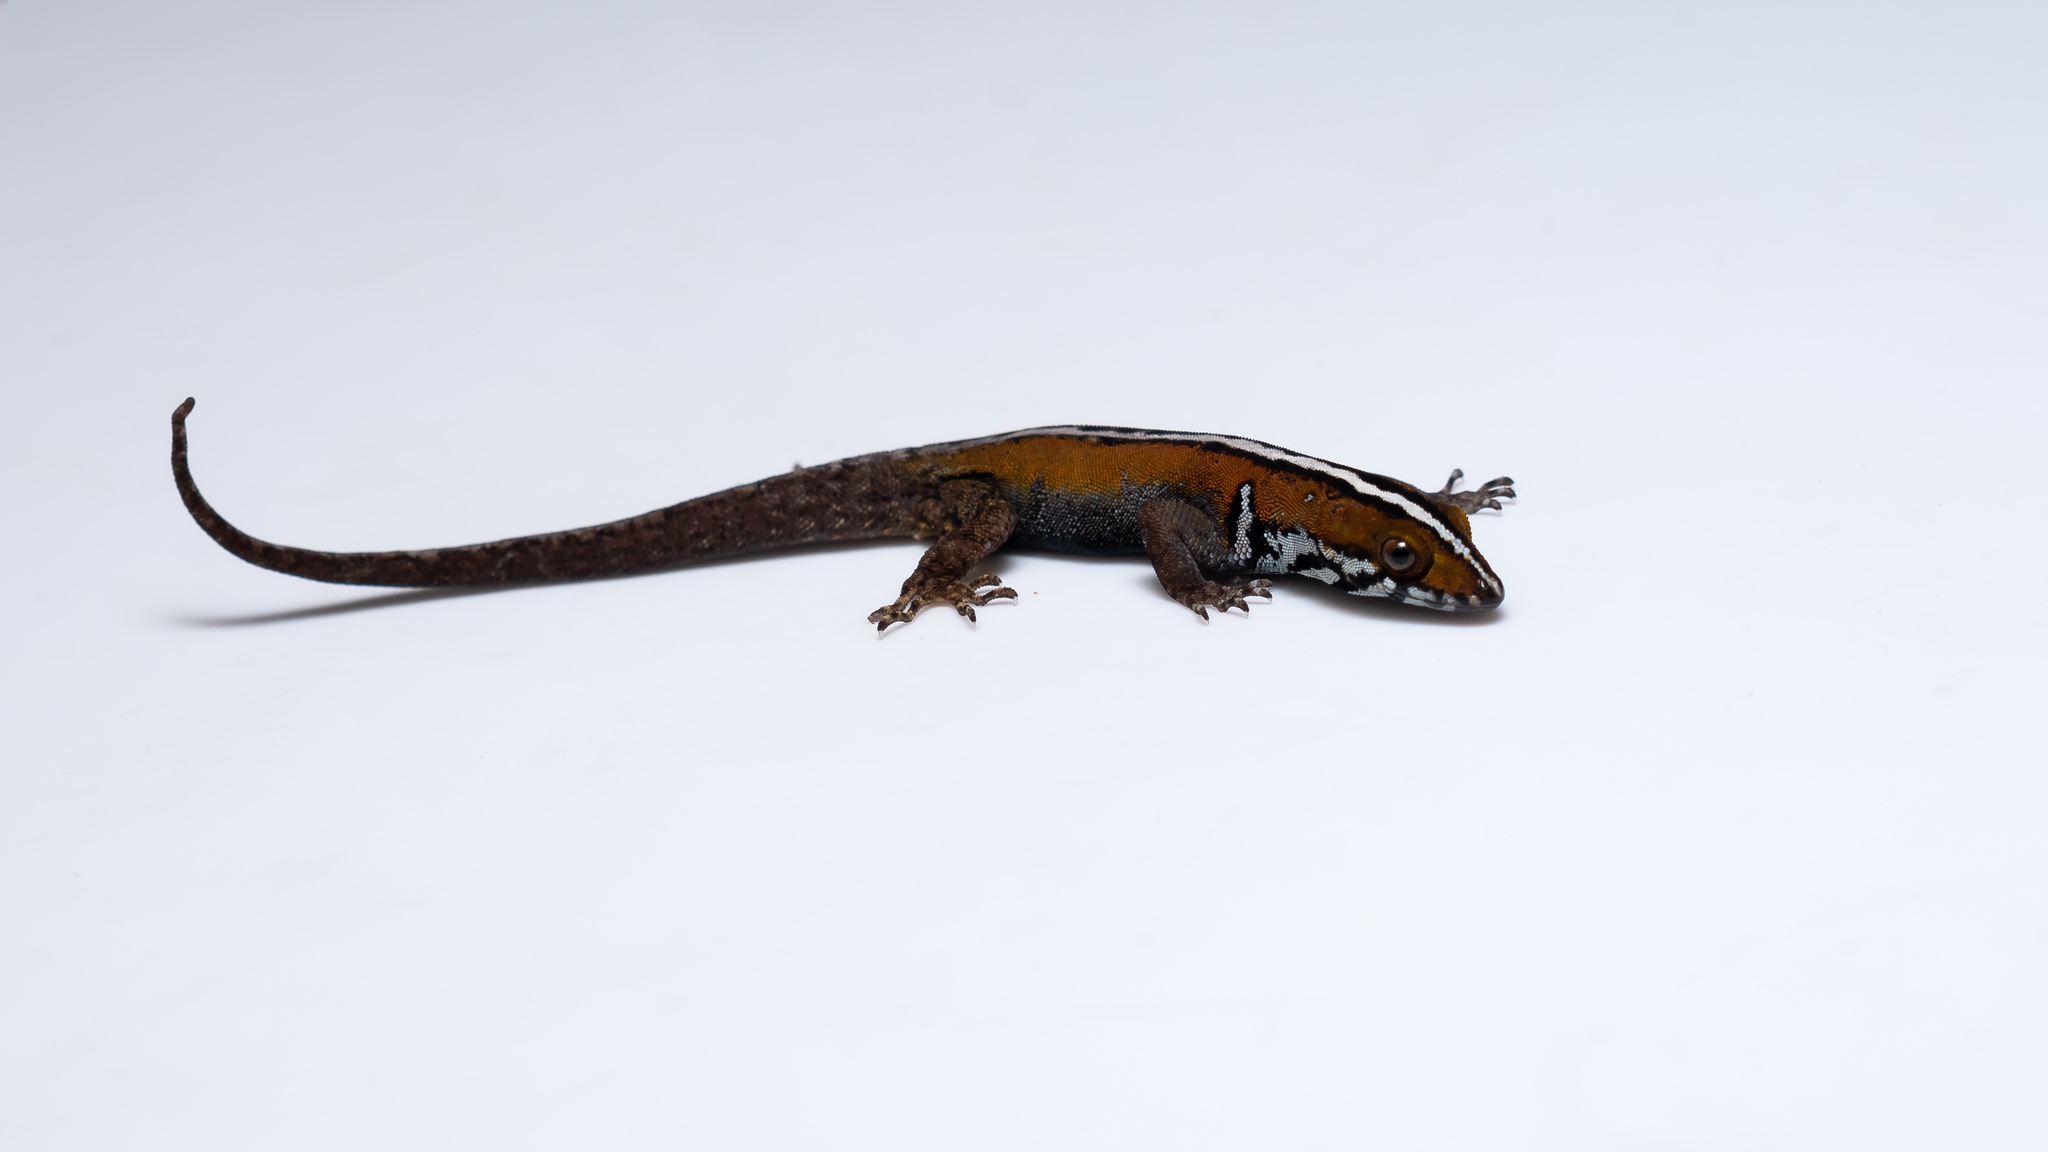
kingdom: Animalia
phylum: Chordata
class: Squamata
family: Sphaerodactylidae
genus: Gonatodes
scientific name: Gonatodes vittatus
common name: Wiegmann's striped gecko
